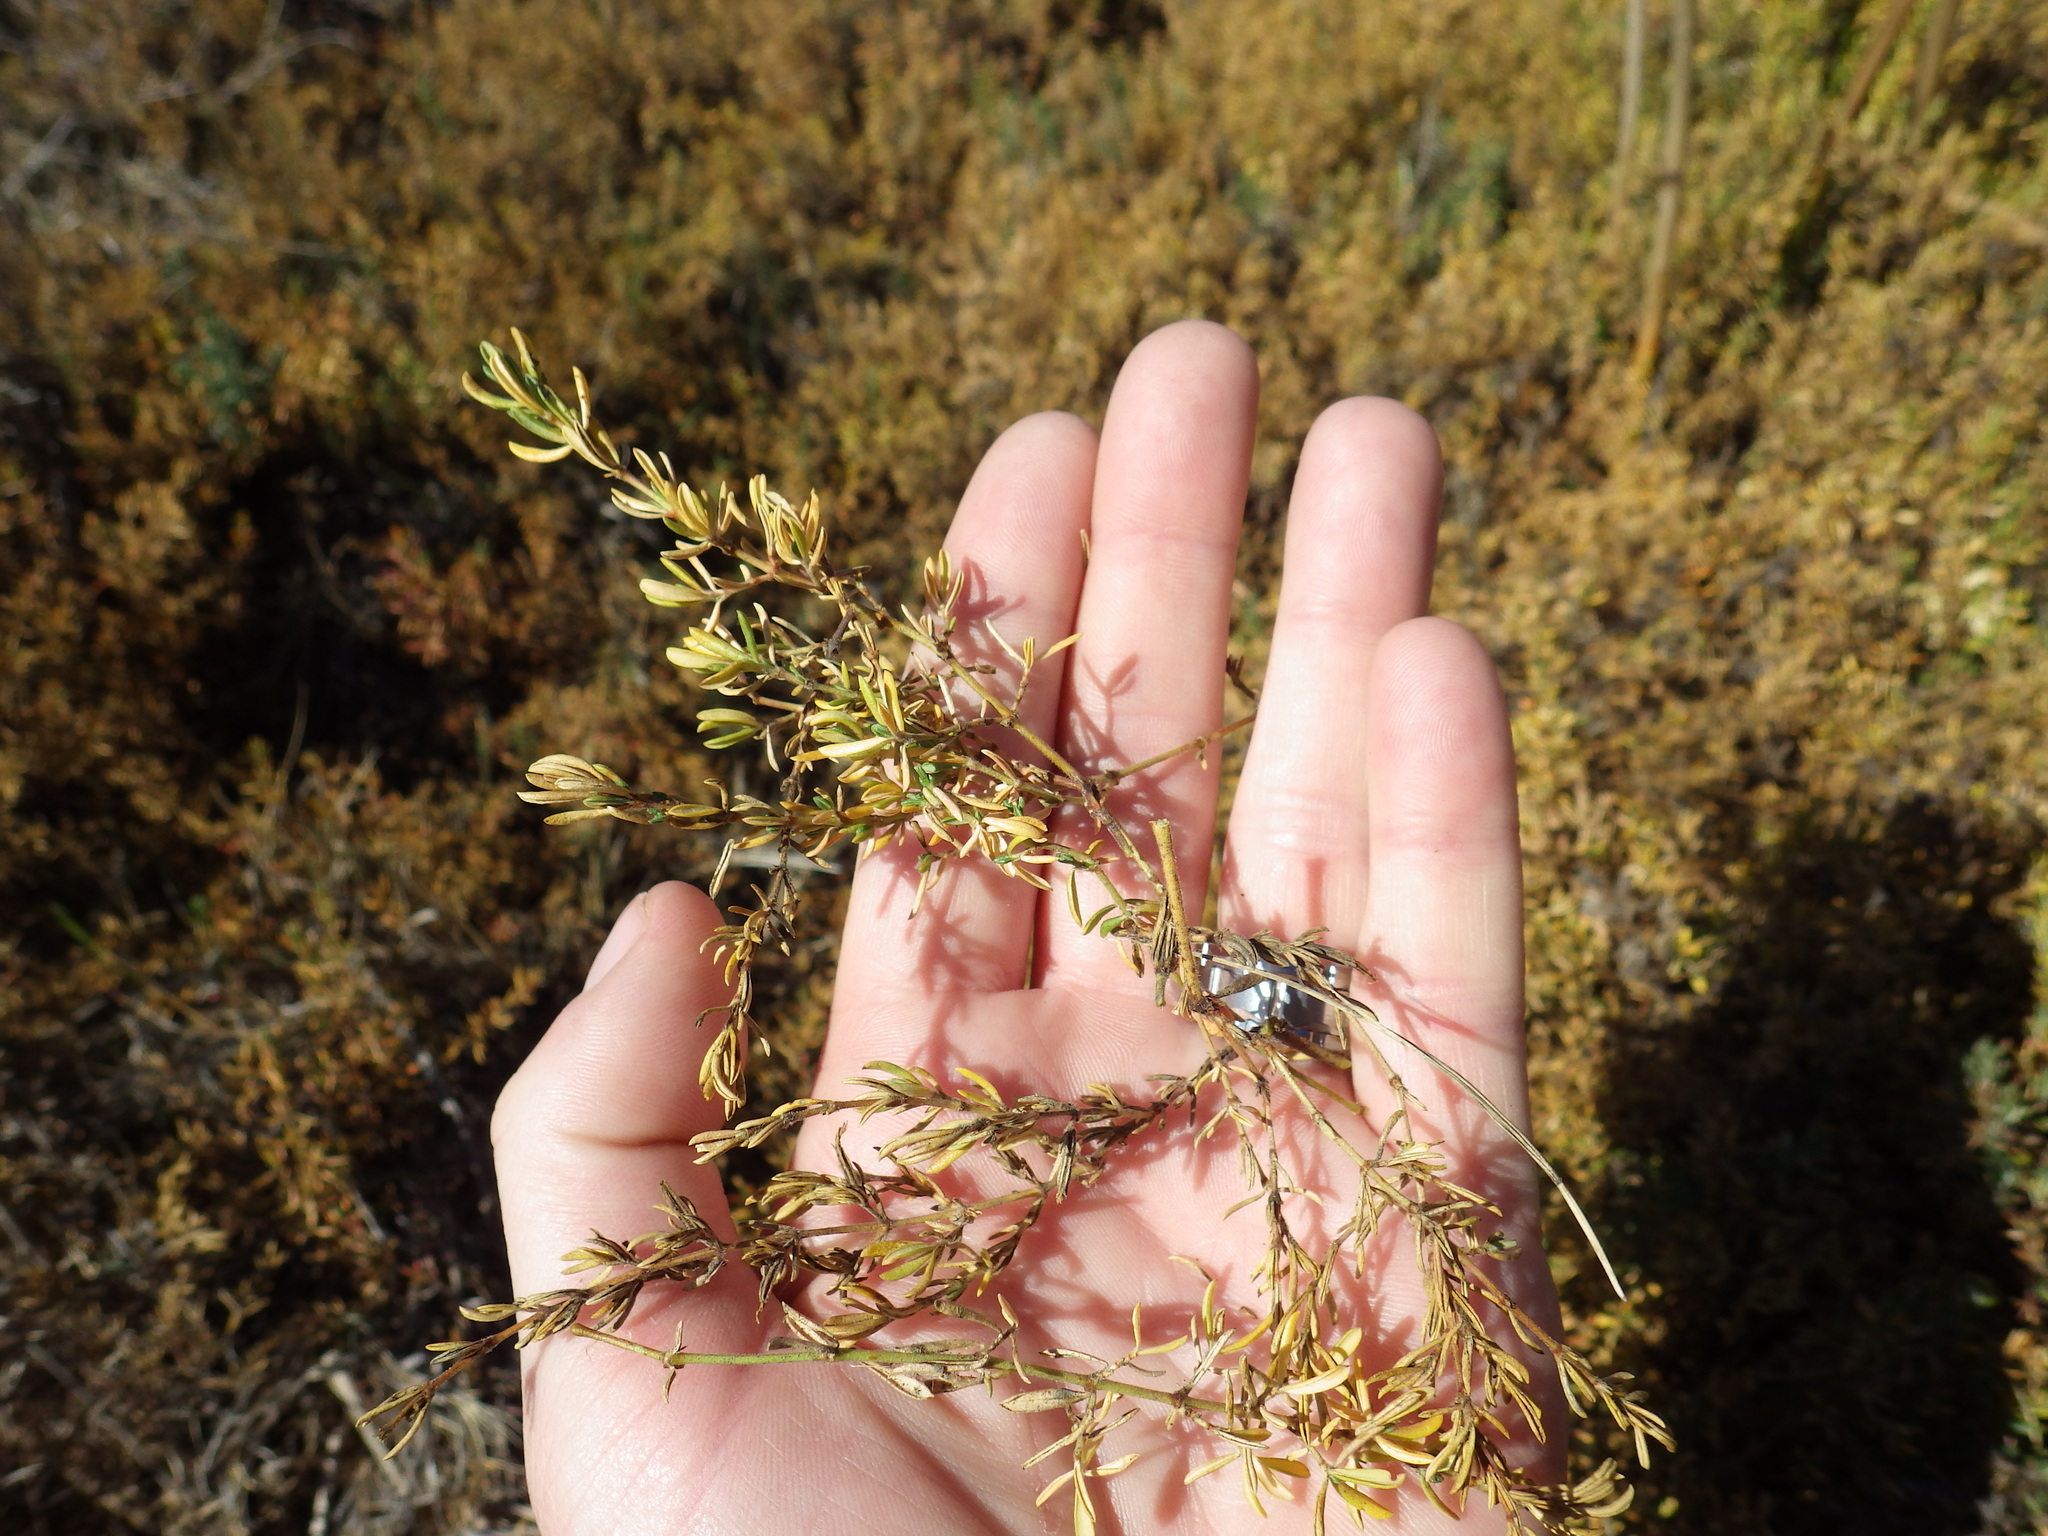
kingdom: Plantae
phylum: Tracheophyta
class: Magnoliopsida
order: Caryophyllales
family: Frankeniaceae
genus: Frankenia
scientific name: Frankenia salina
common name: Alkali seaheath
